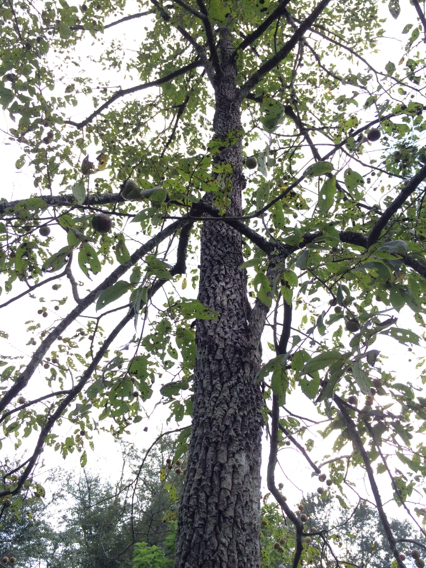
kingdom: Plantae
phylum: Tracheophyta
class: Magnoliopsida
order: Ericales
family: Ebenaceae
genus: Diospyros
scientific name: Diospyros virginiana
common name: Persimmon
